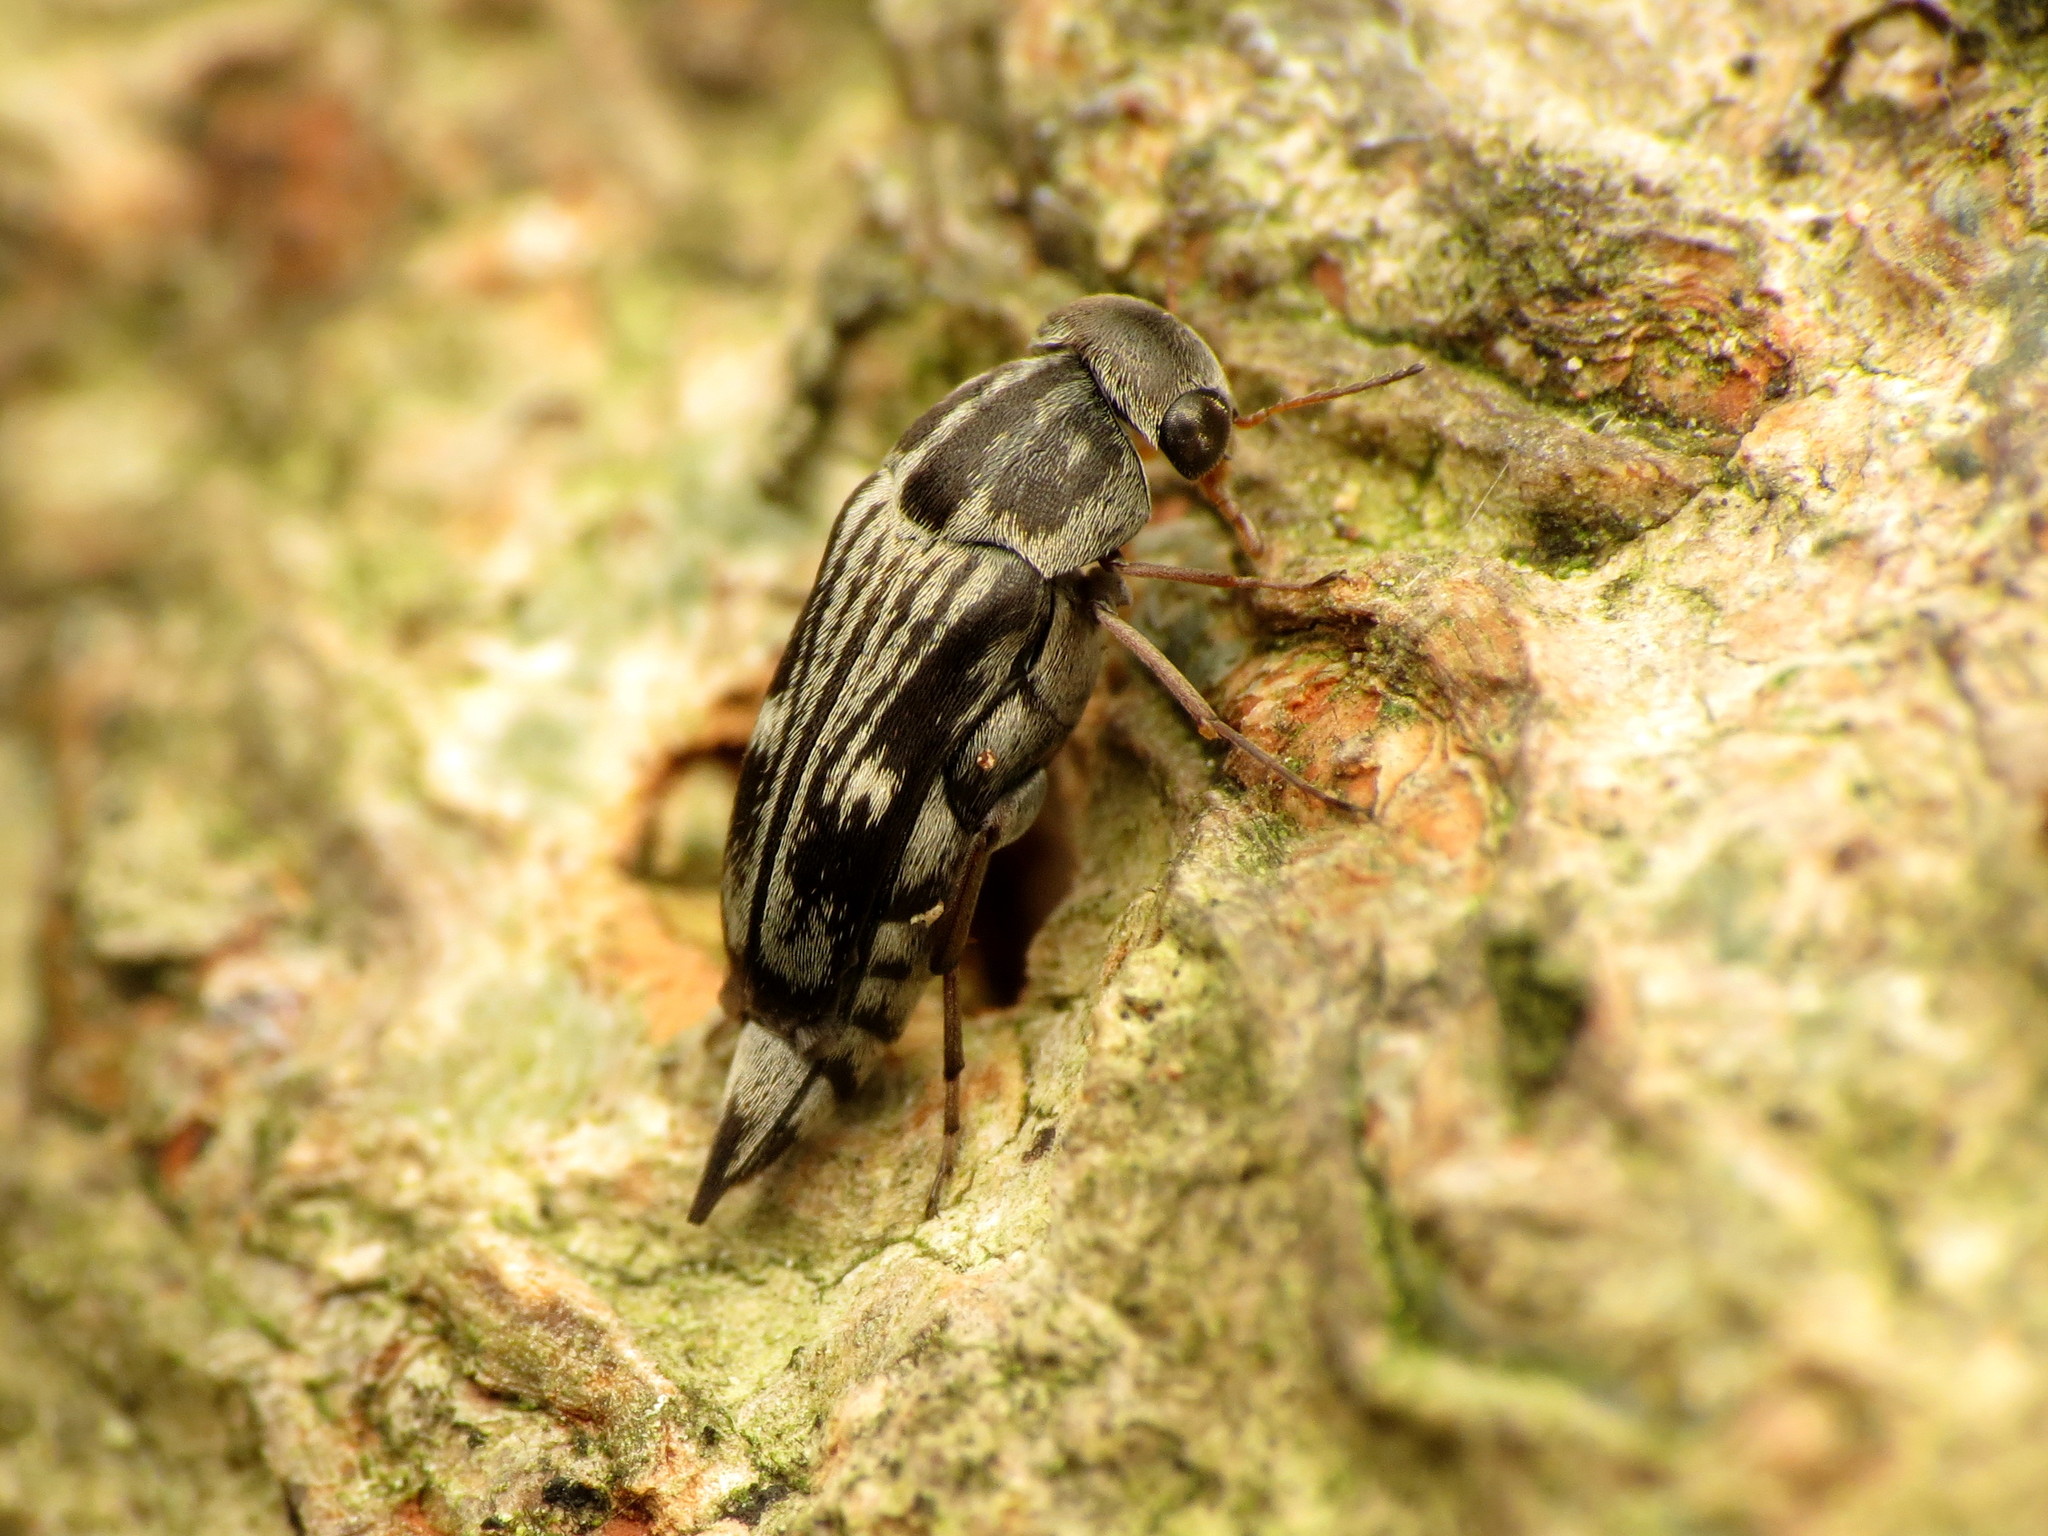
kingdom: Animalia
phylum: Arthropoda
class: Insecta
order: Coleoptera
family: Mordellidae
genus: Tomoxia
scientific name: Tomoxia lineella
